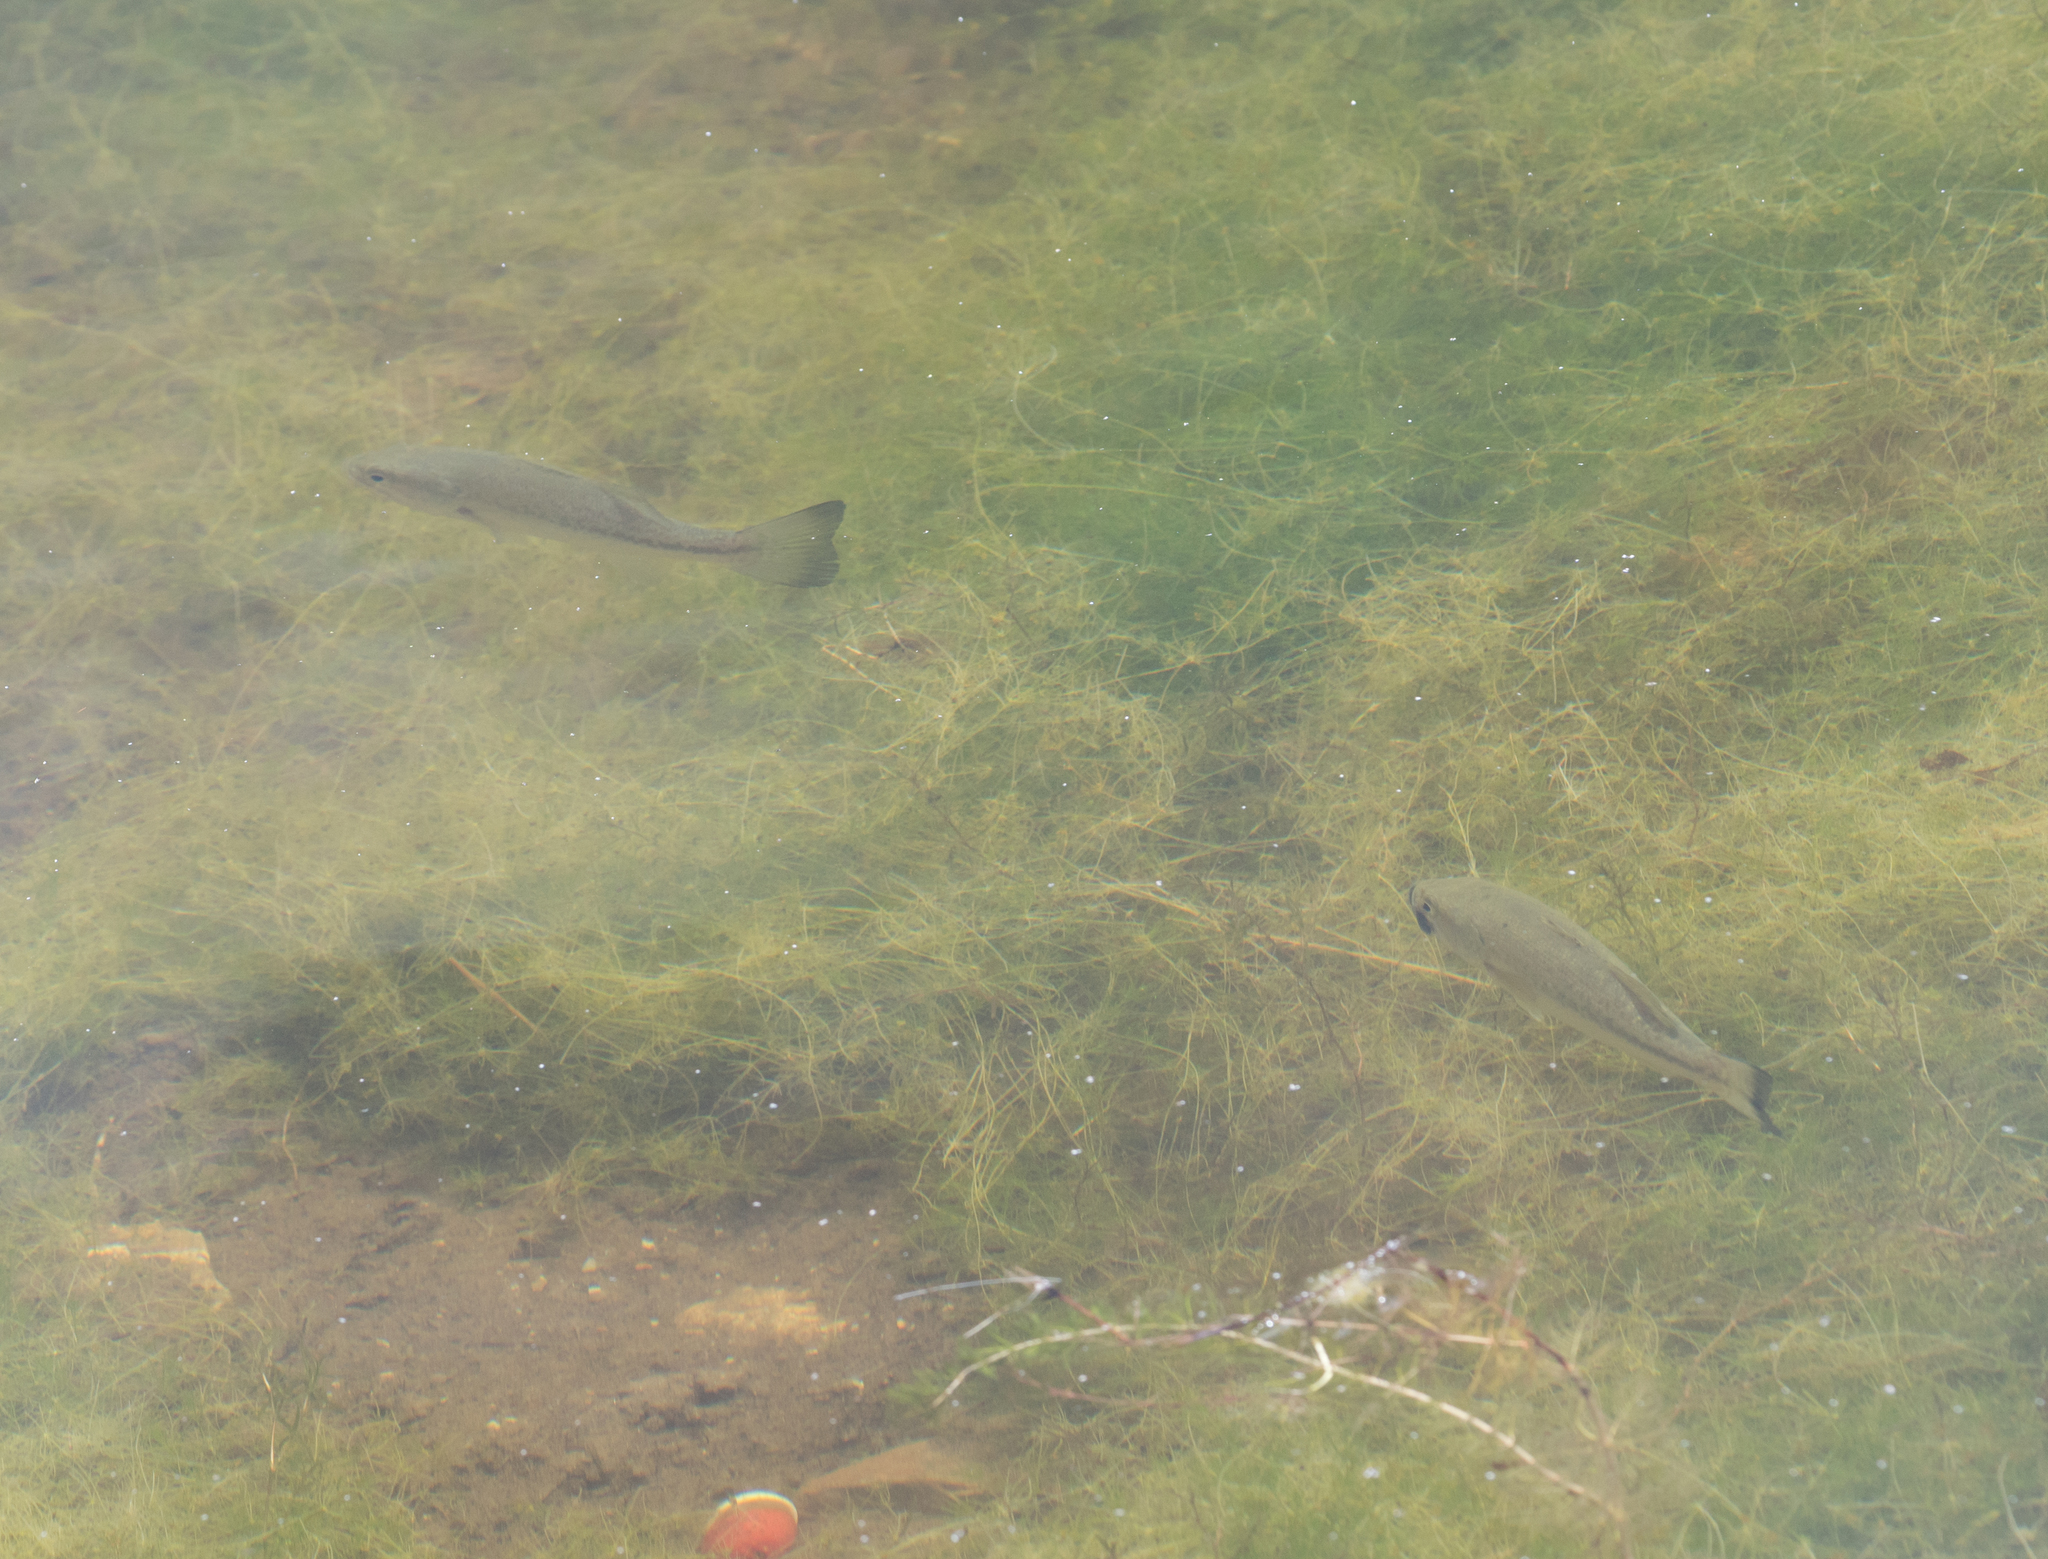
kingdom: Animalia
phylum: Chordata
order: Perciformes
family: Centrarchidae
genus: Micropterus
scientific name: Micropterus
